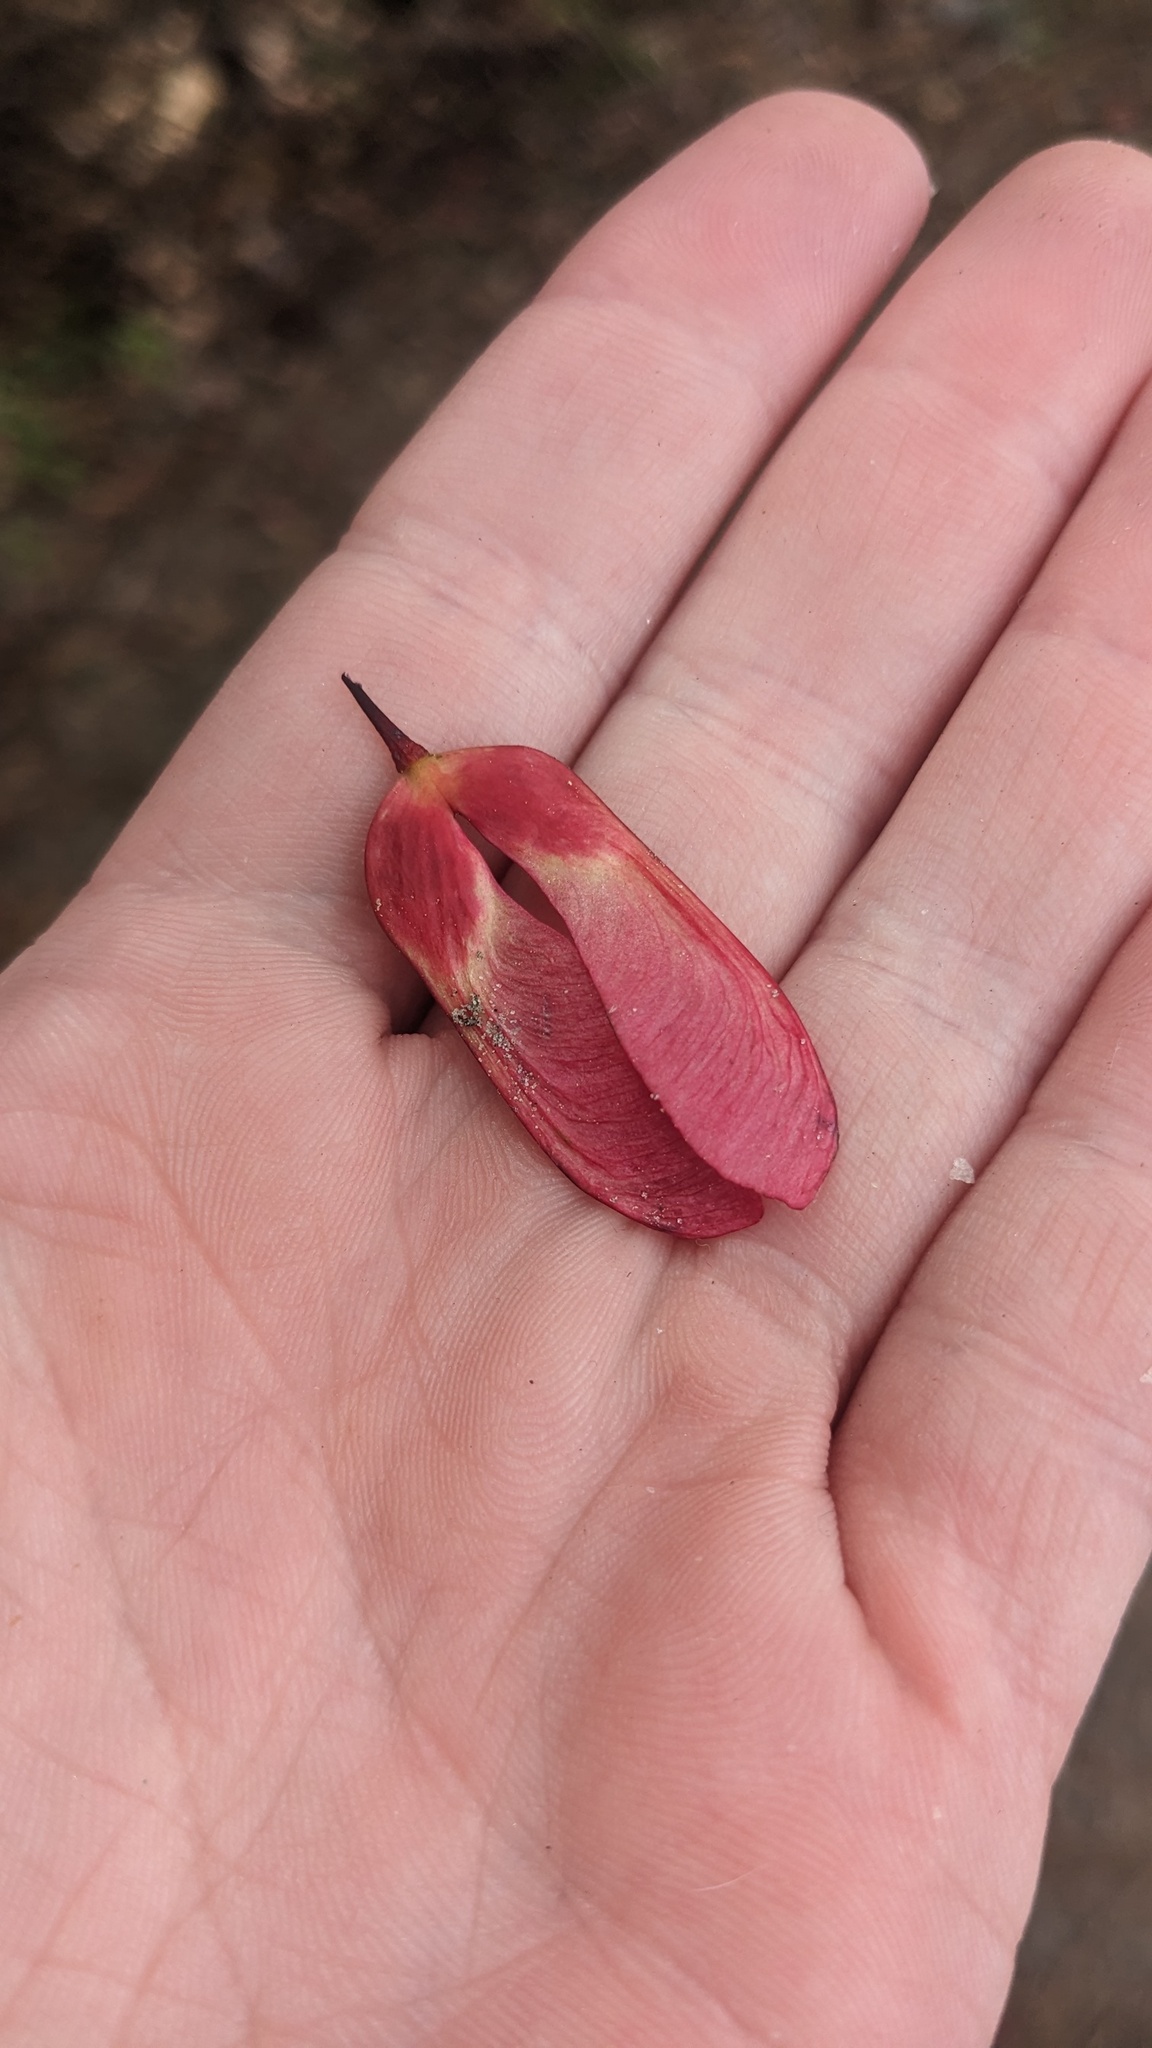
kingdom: Plantae
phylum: Tracheophyta
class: Magnoliopsida
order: Sapindales
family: Sapindaceae
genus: Acer
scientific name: Acer rubrum
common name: Red maple
